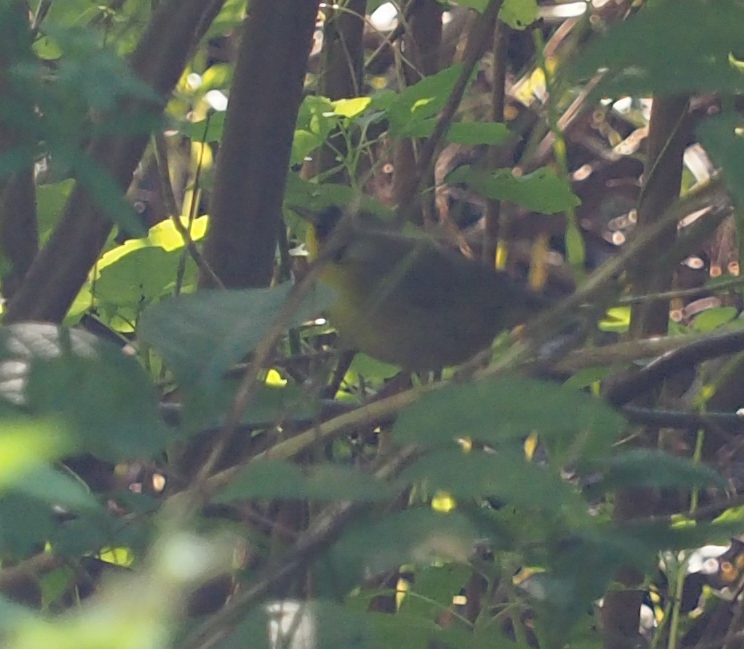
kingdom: Animalia
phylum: Chordata
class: Aves
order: Passeriformes
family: Parulidae
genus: Geothlypis
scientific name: Geothlypis trichas
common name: Common yellowthroat
